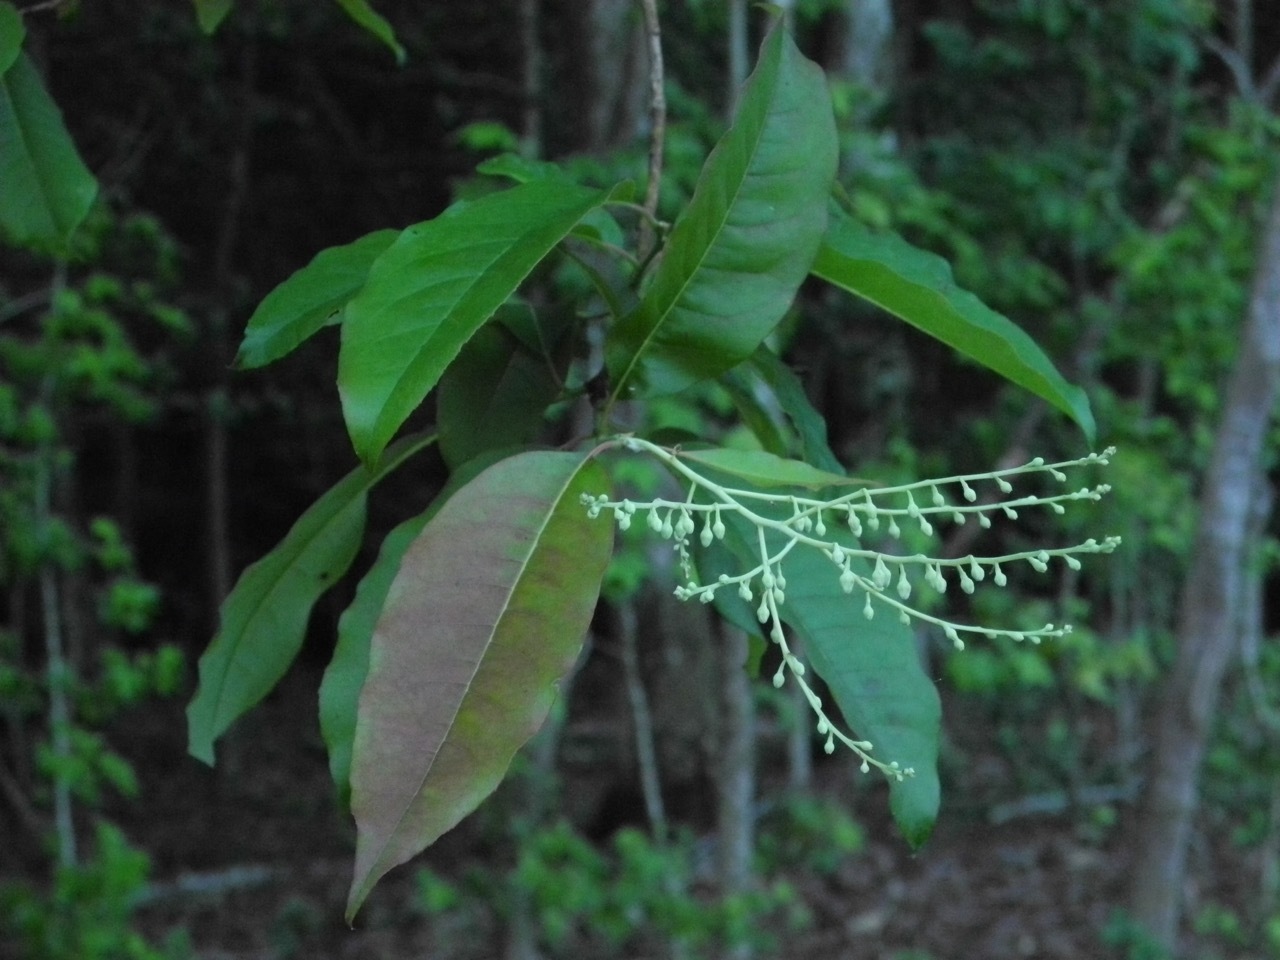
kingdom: Plantae
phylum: Tracheophyta
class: Magnoliopsida
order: Ericales
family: Ericaceae
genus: Oxydendrum
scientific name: Oxydendrum arboreum
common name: Sourwood
